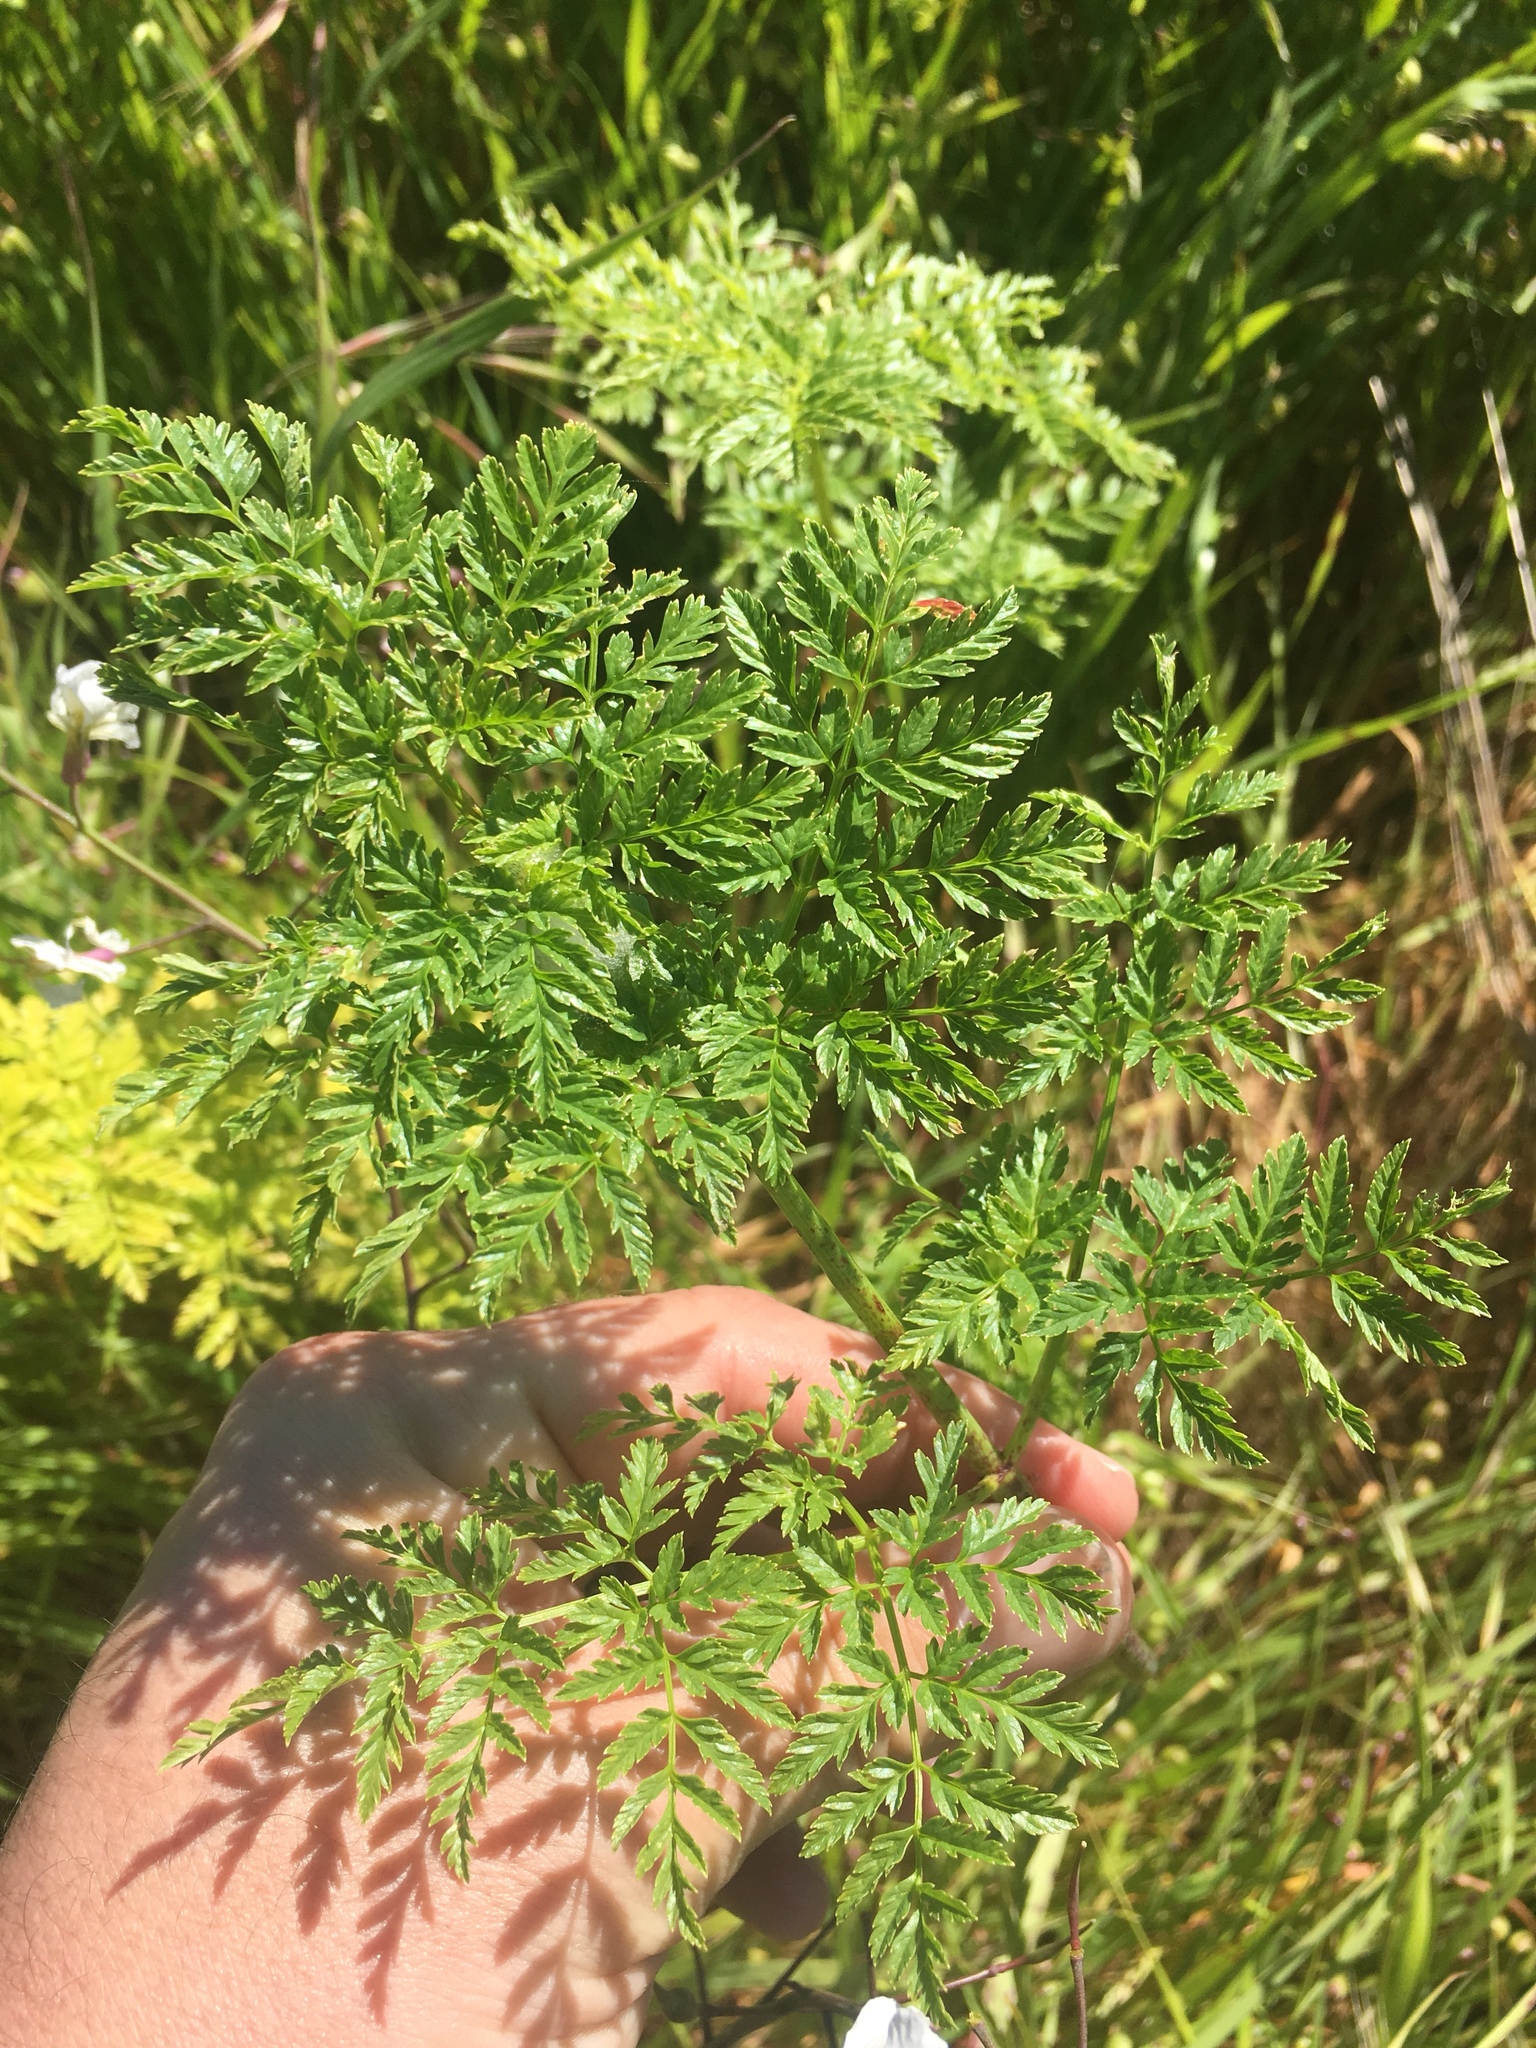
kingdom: Plantae
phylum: Tracheophyta
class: Magnoliopsida
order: Apiales
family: Apiaceae
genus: Conium
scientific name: Conium maculatum
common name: Hemlock
